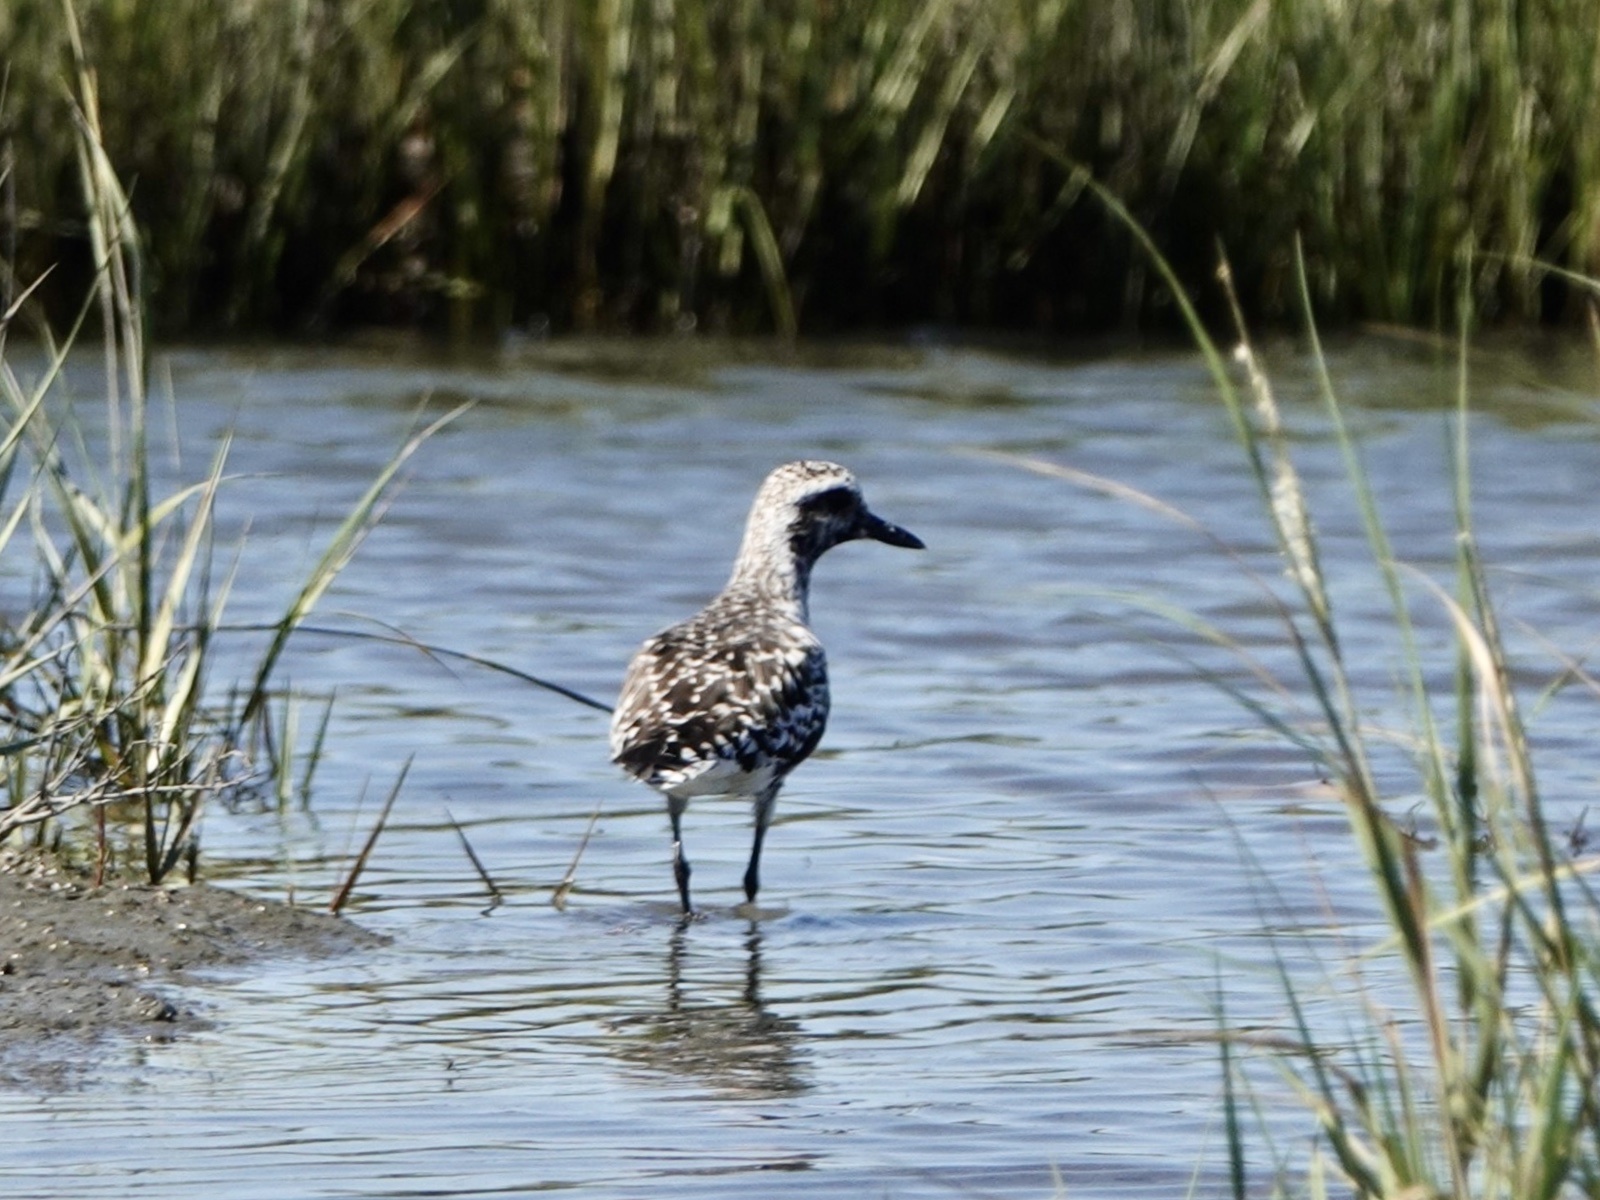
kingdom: Animalia
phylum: Chordata
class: Aves
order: Charadriiformes
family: Charadriidae
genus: Pluvialis
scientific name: Pluvialis squatarola
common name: Grey plover
